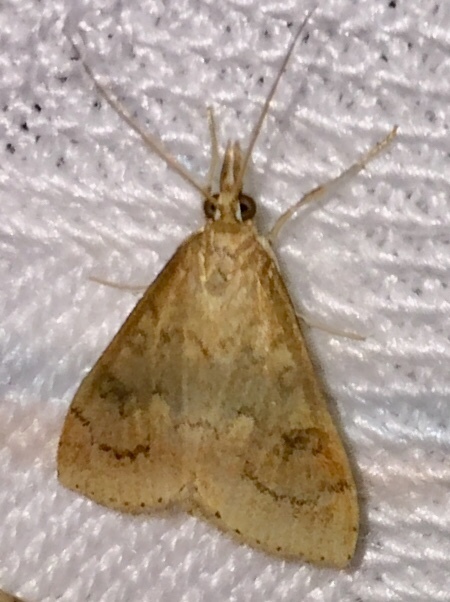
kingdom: Animalia
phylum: Arthropoda
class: Insecta
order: Lepidoptera
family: Crambidae
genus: Udea
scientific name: Udea rubigalis
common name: Celery leaftier moth
